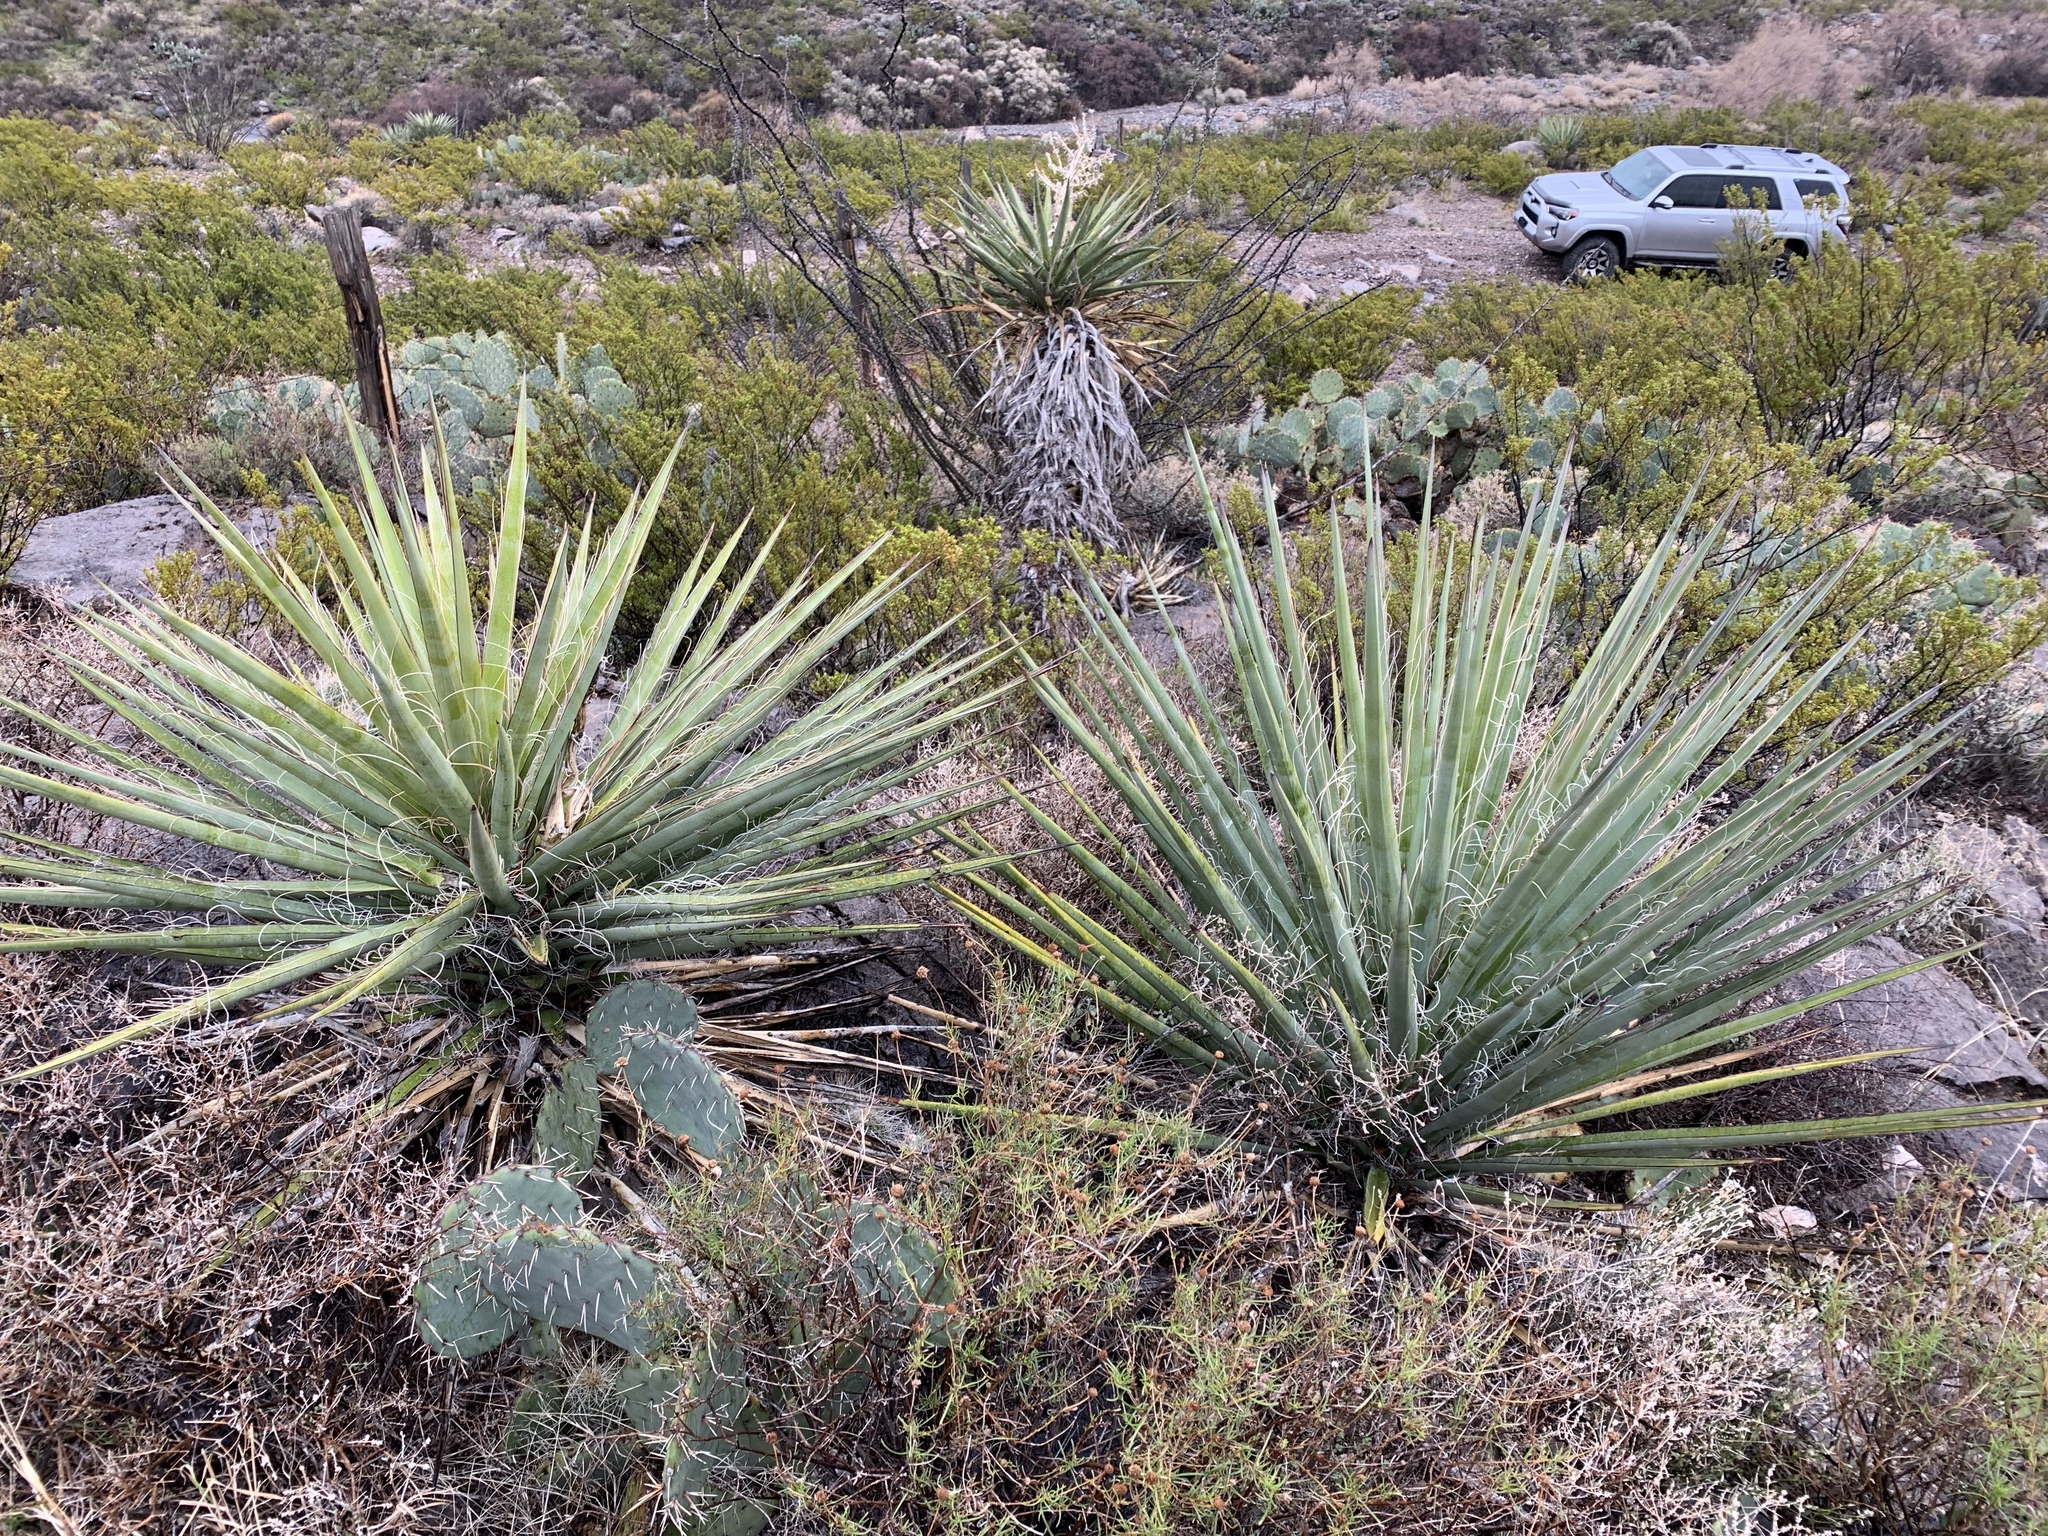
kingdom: Plantae
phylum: Tracheophyta
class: Liliopsida
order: Asparagales
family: Asparagaceae
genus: Yucca
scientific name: Yucca treculiana
